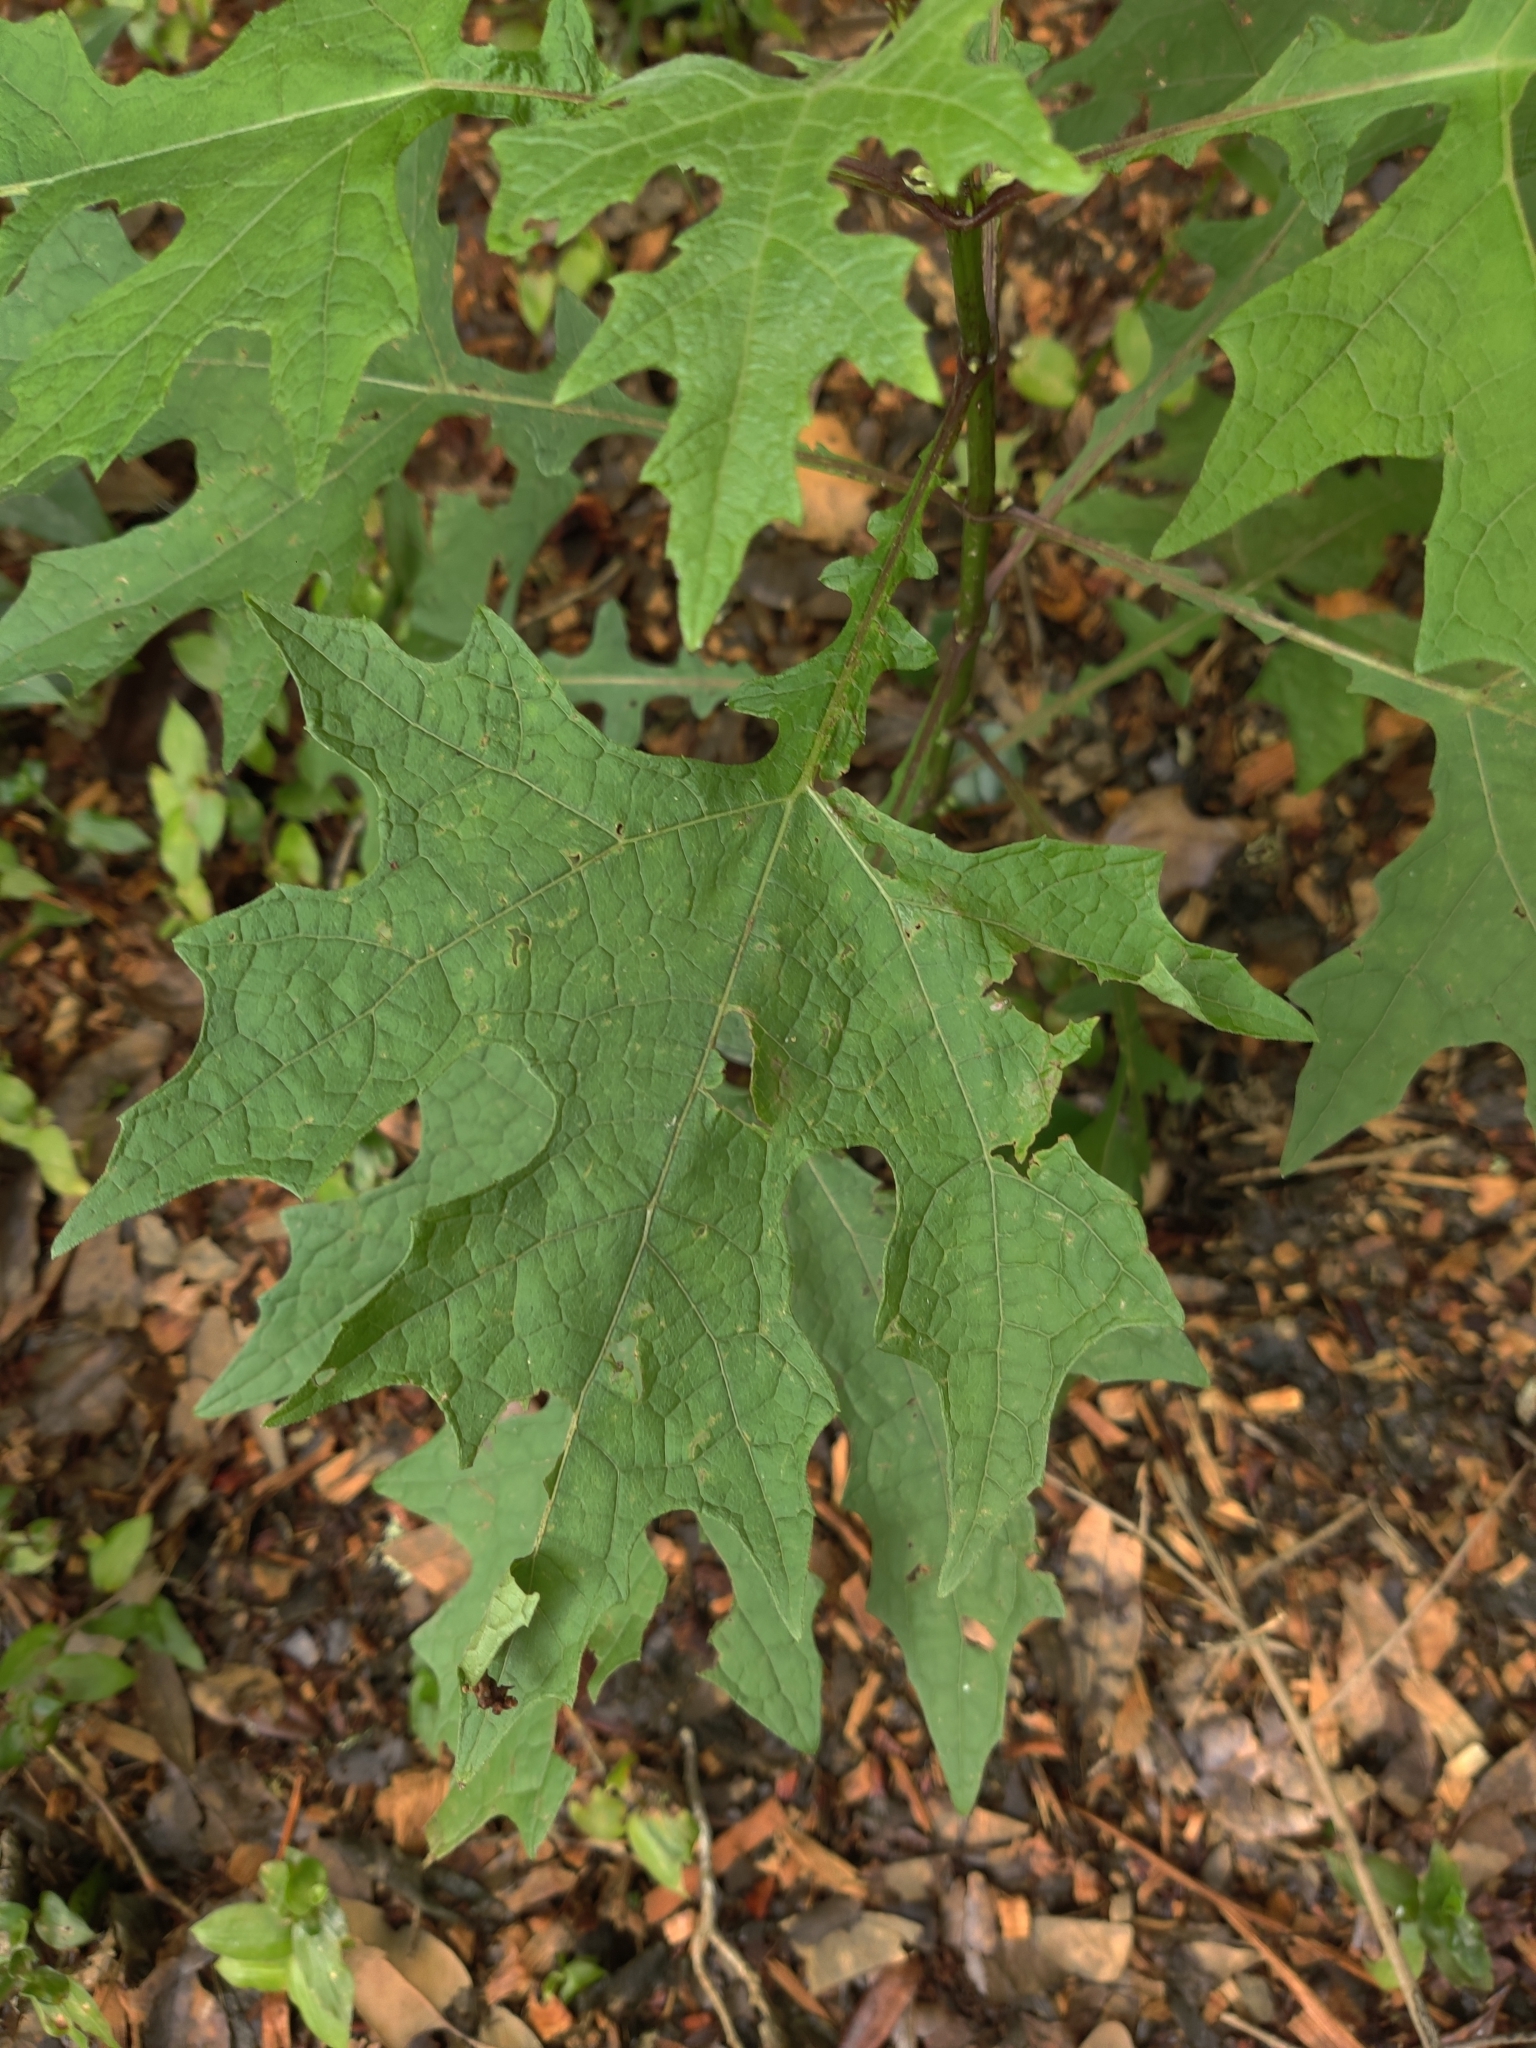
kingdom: Plantae
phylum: Tracheophyta
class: Magnoliopsida
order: Asterales
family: Asteraceae
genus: Smallanthus
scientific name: Smallanthus uvedalia
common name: Bear's-foot
